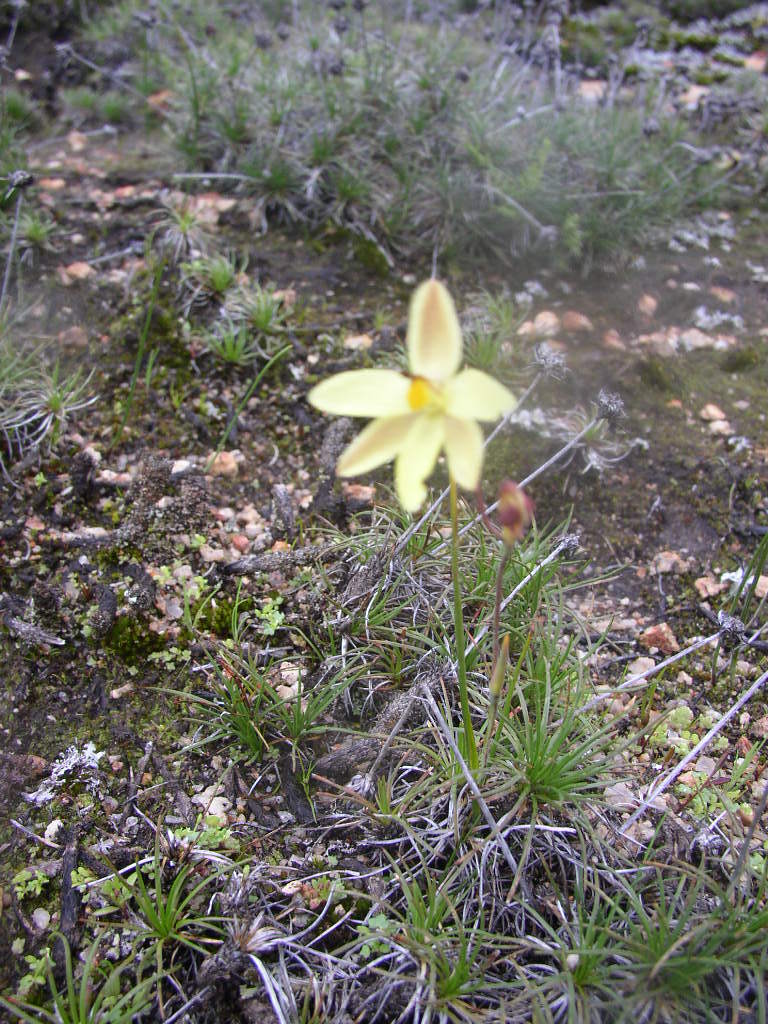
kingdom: Plantae
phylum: Tracheophyta
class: Liliopsida
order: Asparagales
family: Orchidaceae
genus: Thelymitra
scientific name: Thelymitra antennifera
